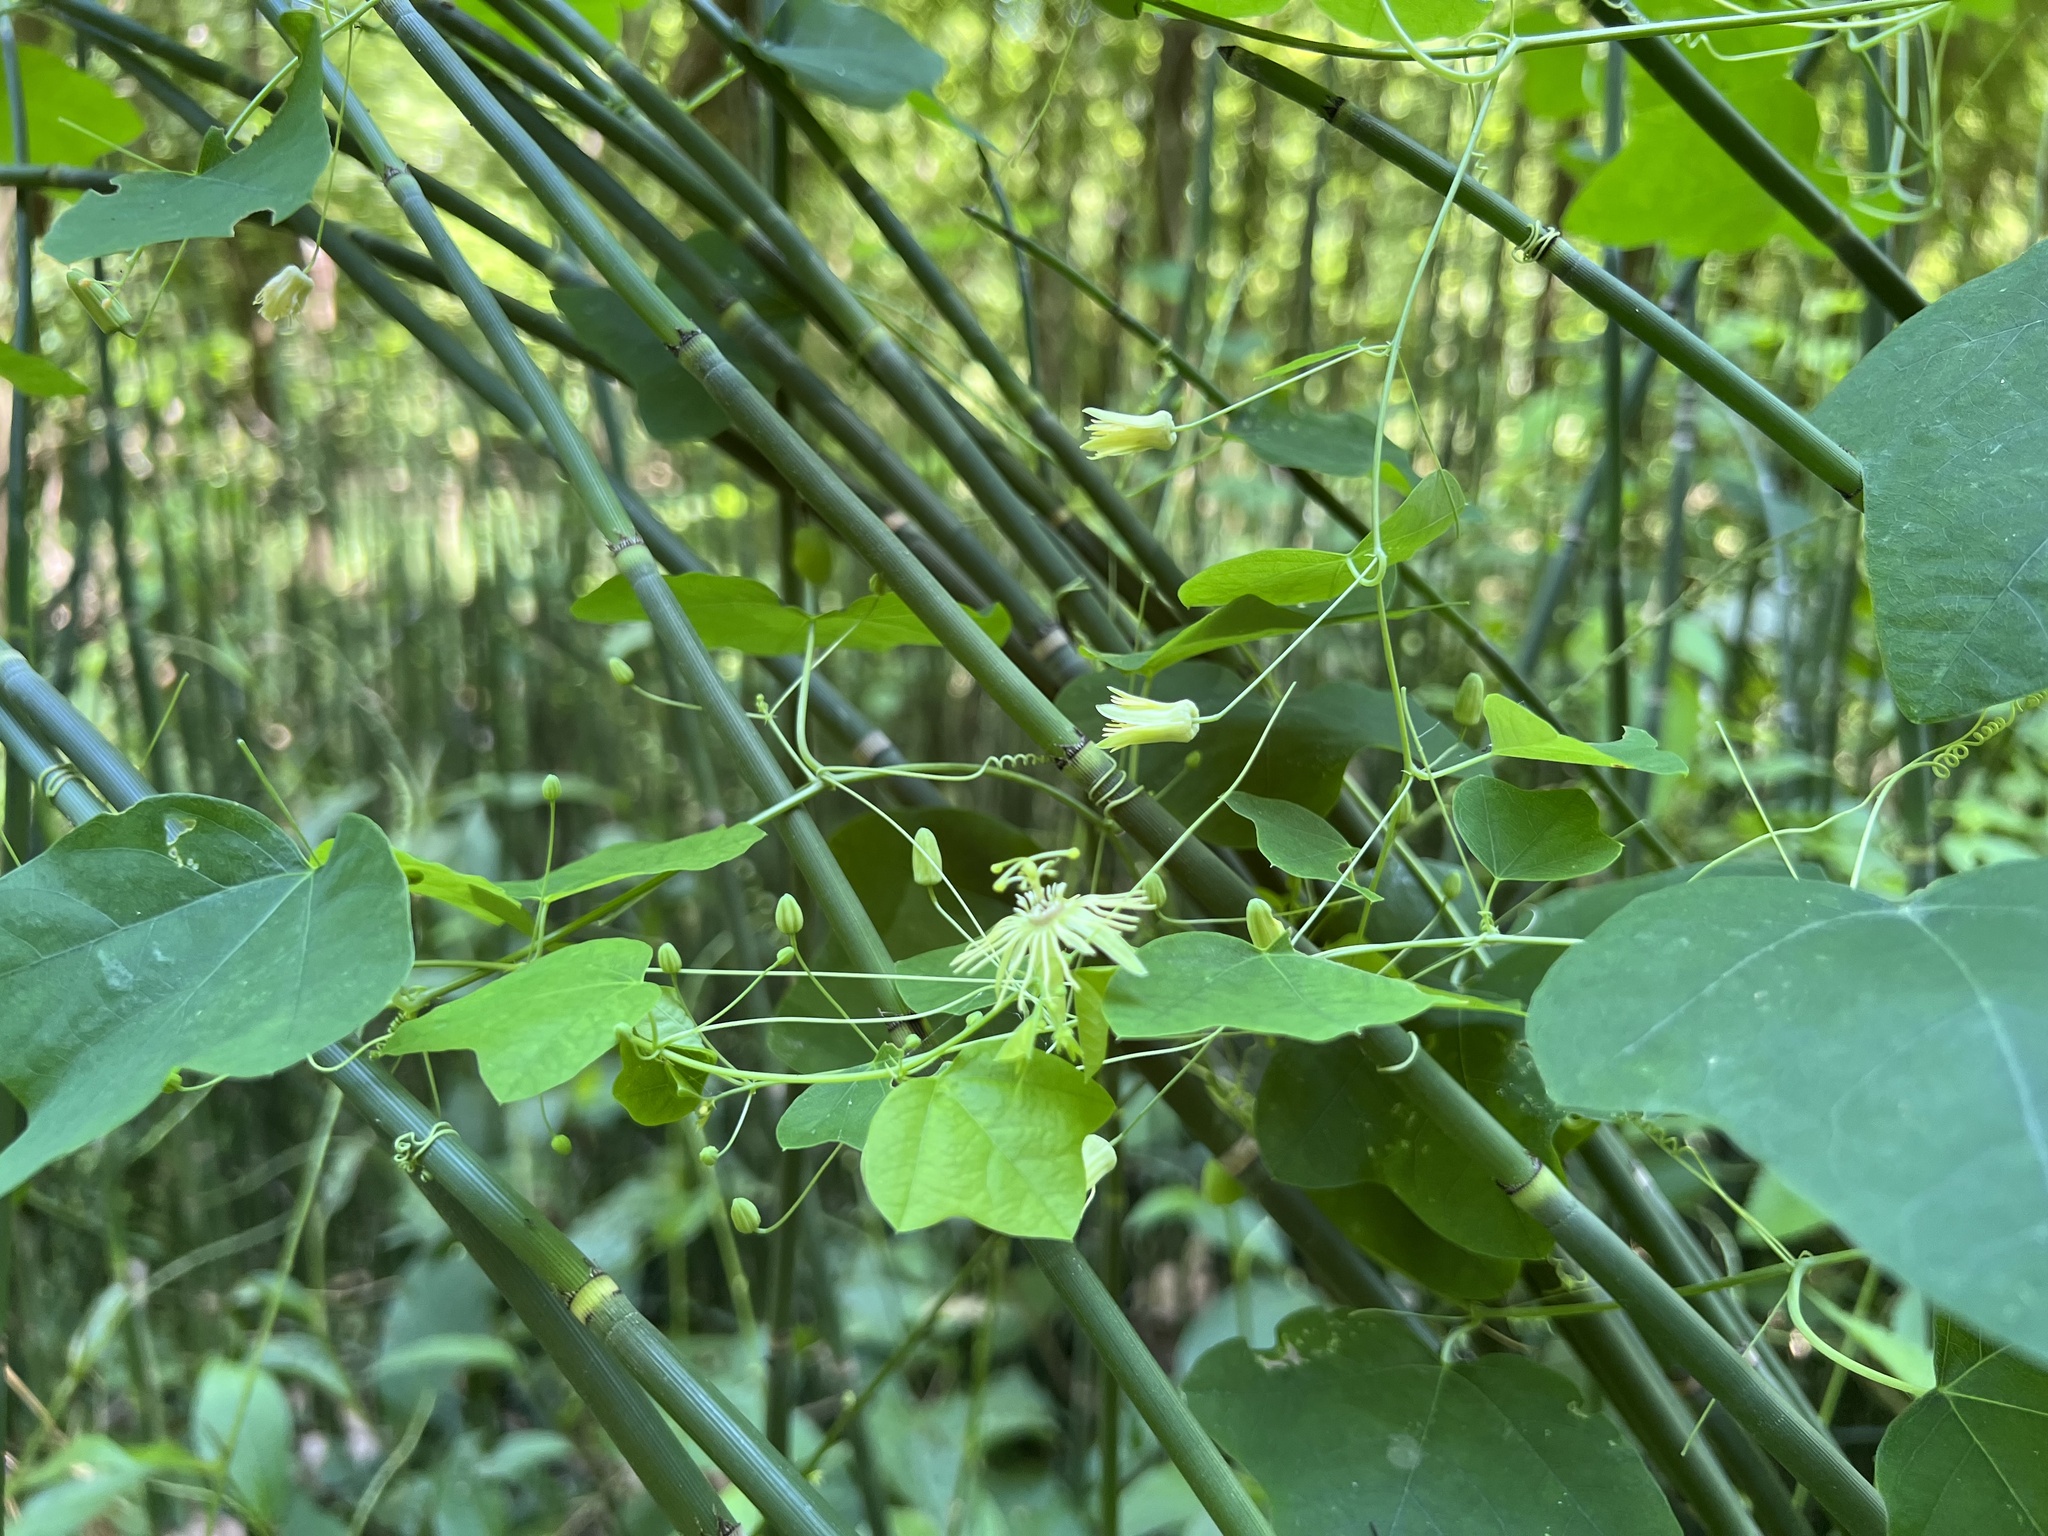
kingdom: Plantae
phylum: Tracheophyta
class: Magnoliopsida
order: Malpighiales
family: Passifloraceae
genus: Passiflora
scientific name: Passiflora lutea
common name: Yellow passionflower
